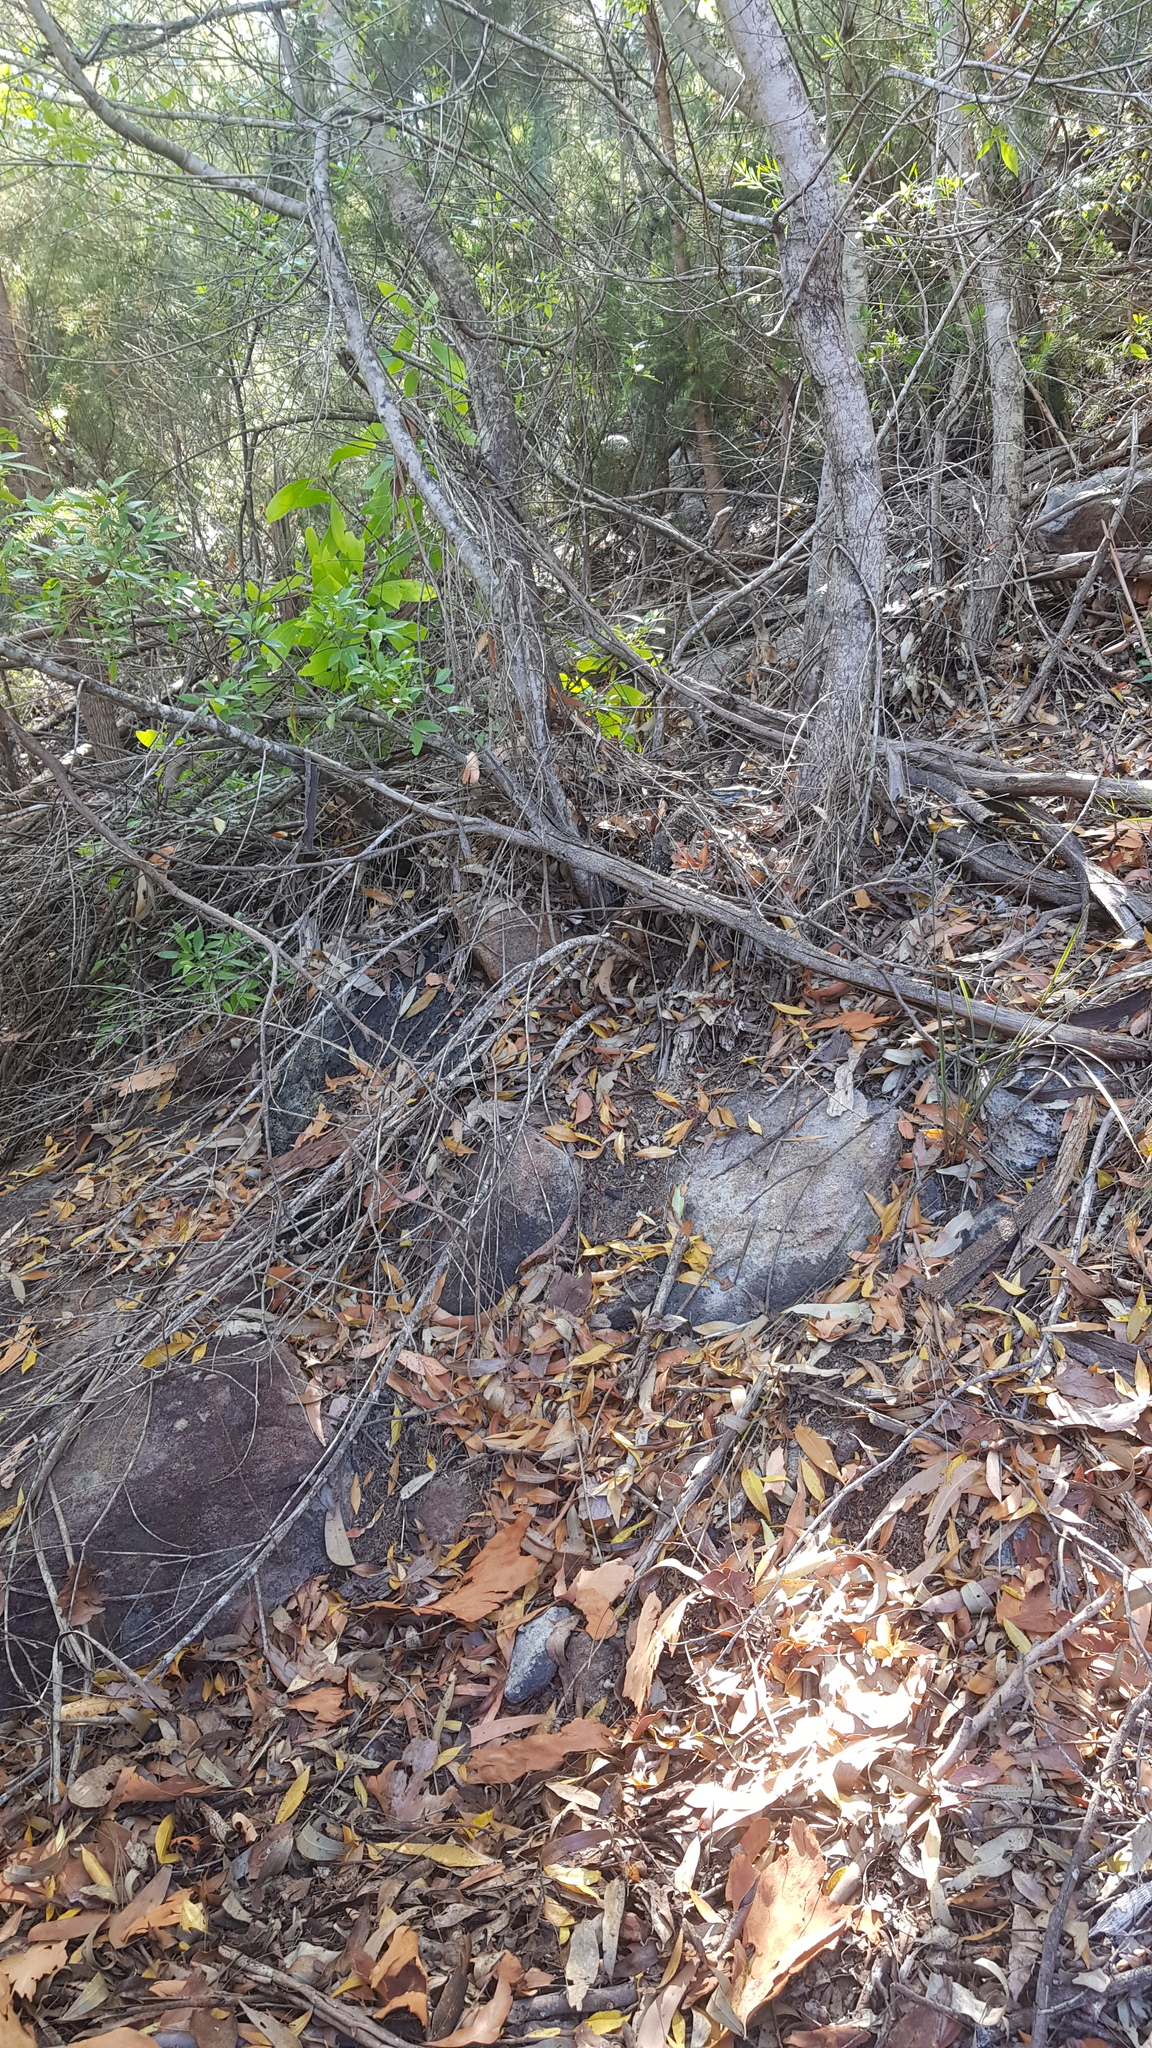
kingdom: Animalia
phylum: Chordata
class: Squamata
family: Varanidae
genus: Varanus
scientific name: Varanus varius
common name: Lace monitor
